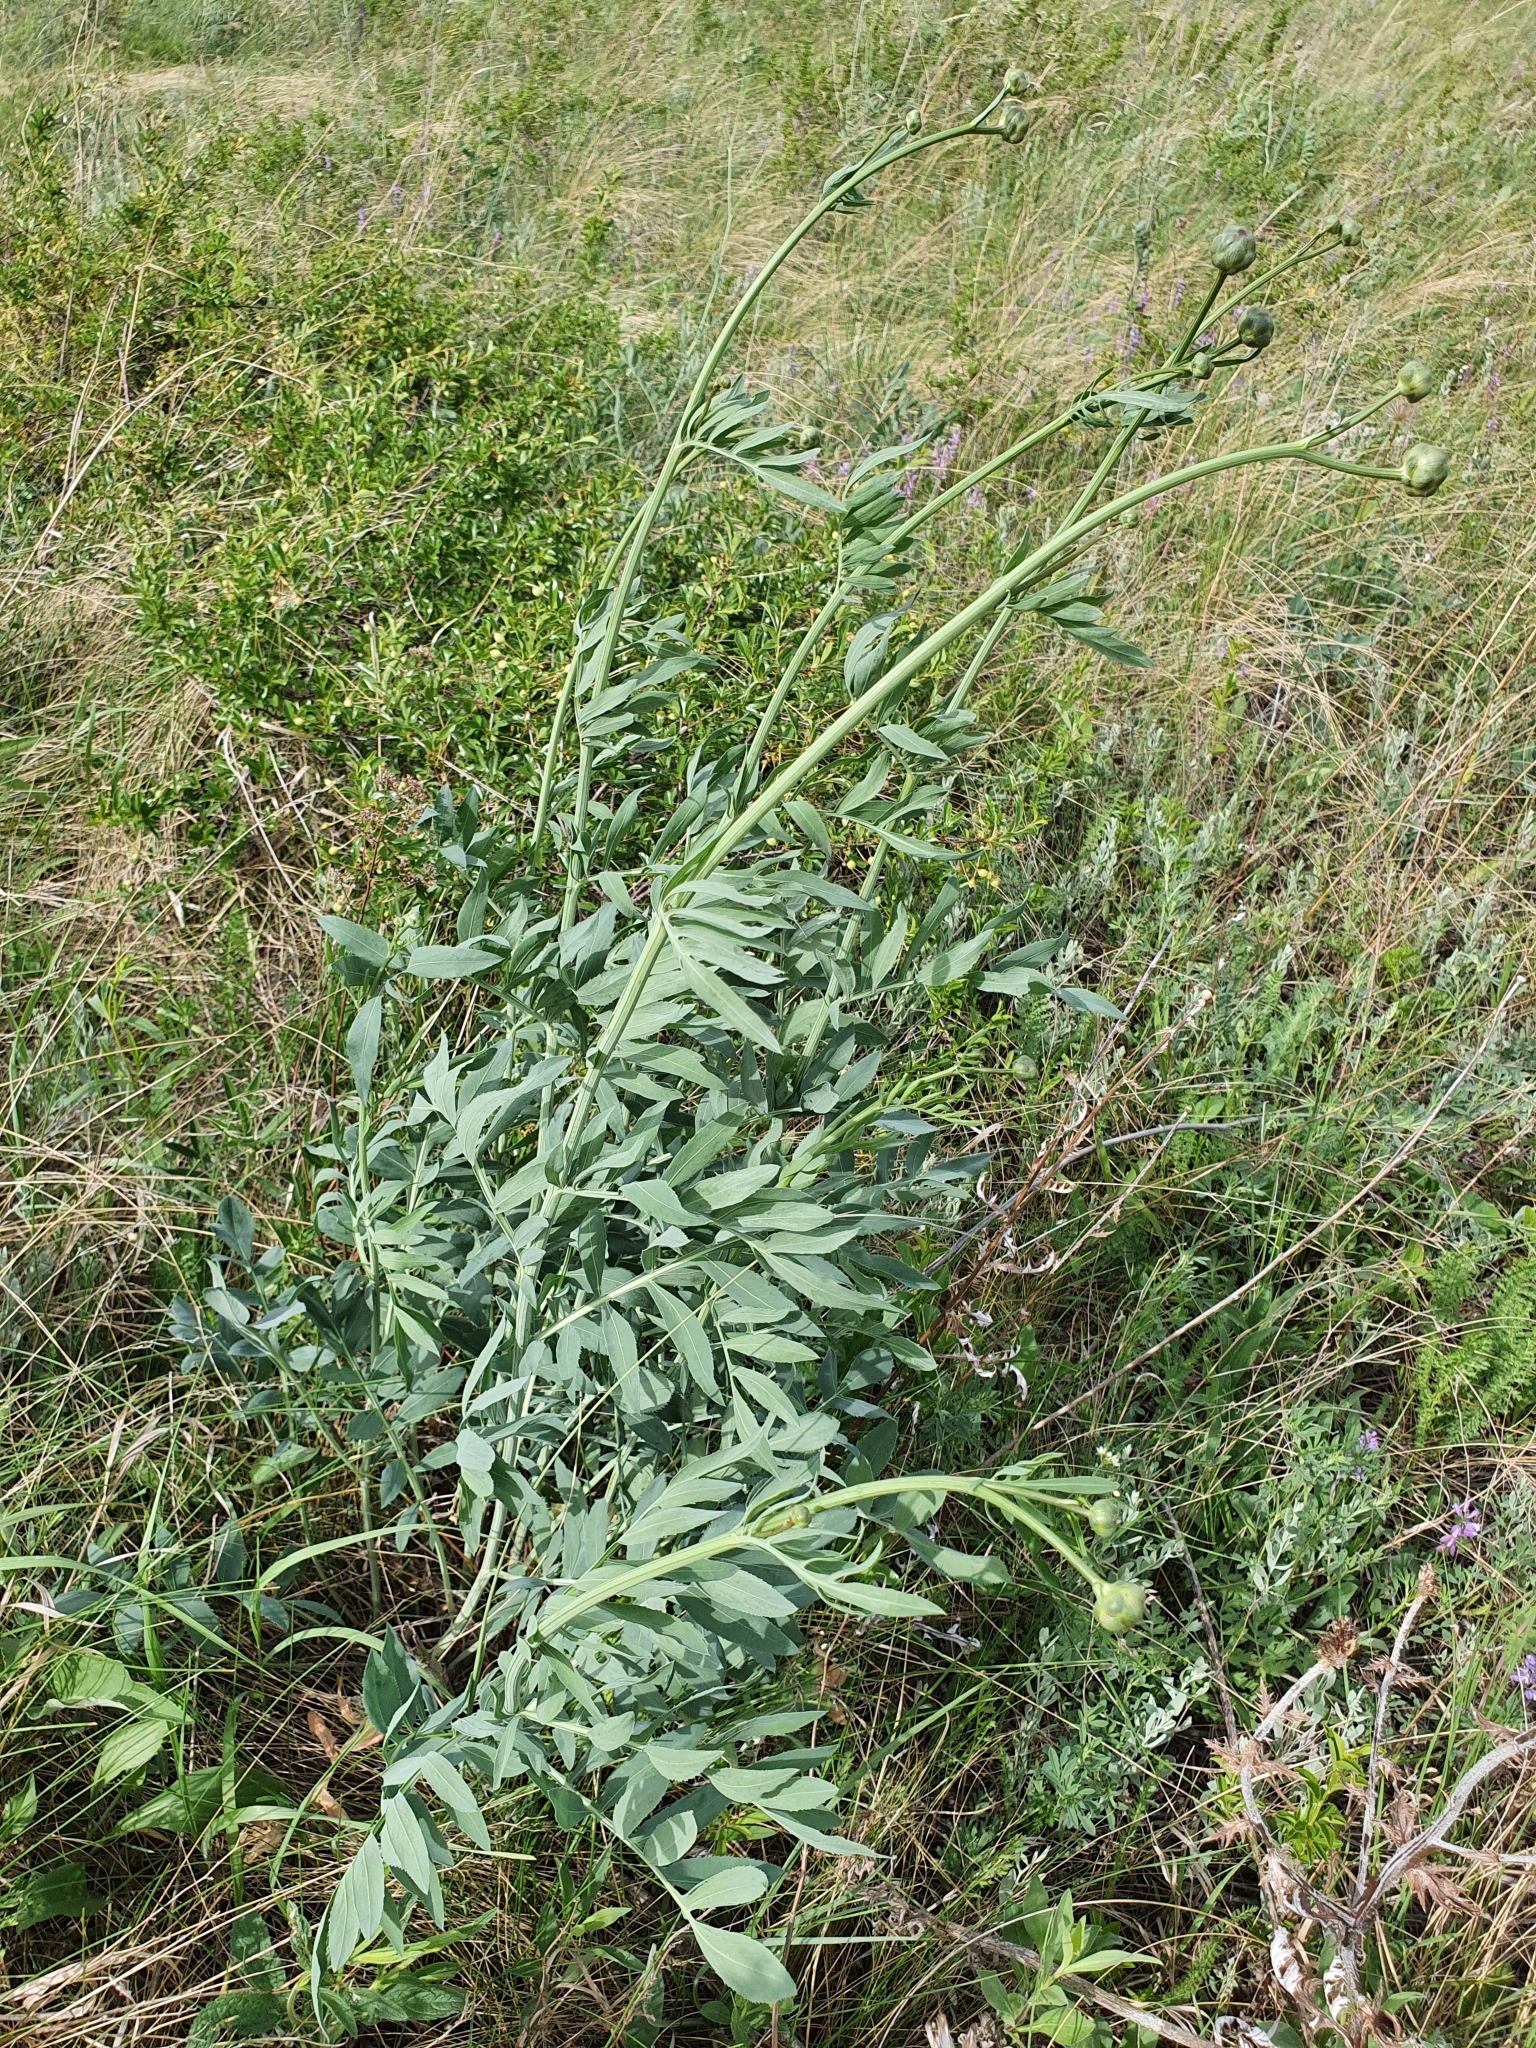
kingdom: Plantae
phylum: Tracheophyta
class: Magnoliopsida
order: Asterales
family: Asteraceae
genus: Rhaponticoides
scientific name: Rhaponticoides ruthenica
